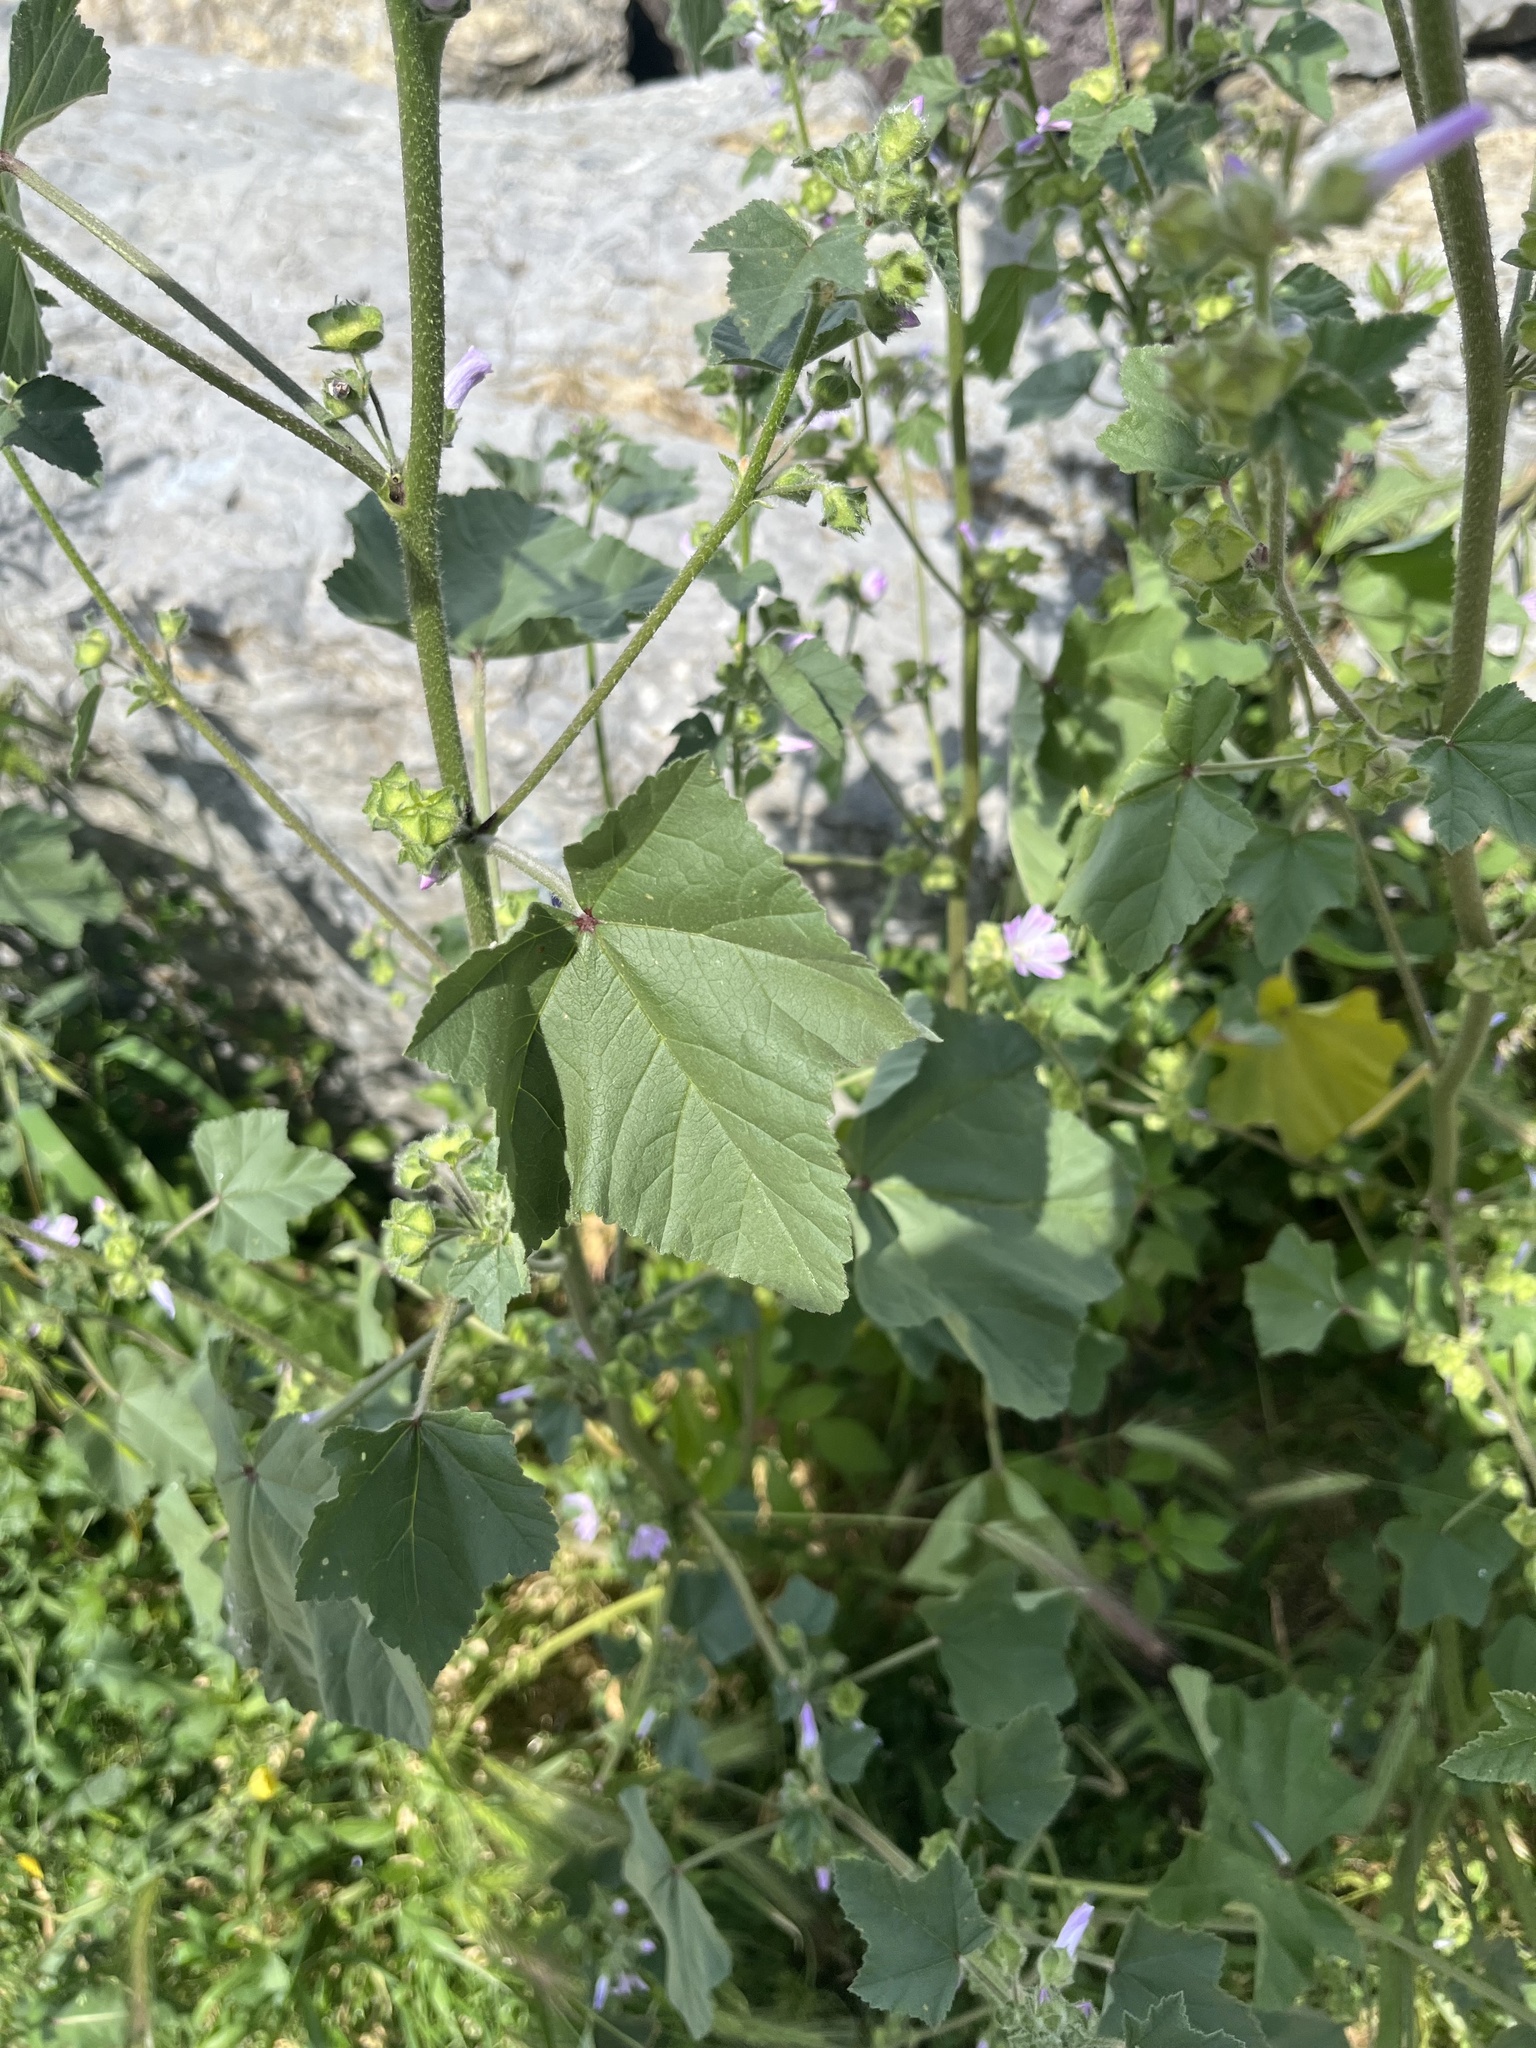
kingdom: Plantae
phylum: Tracheophyta
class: Magnoliopsida
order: Malvales
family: Malvaceae
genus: Malva
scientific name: Malva sylvestris
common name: Common mallow
